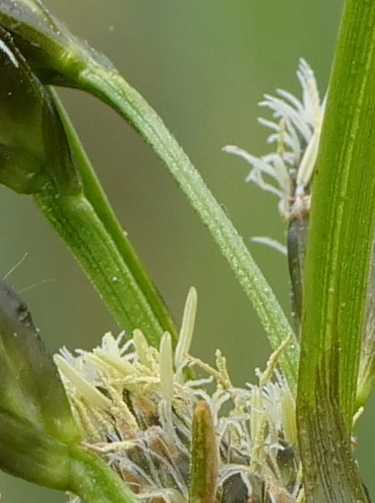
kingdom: Plantae
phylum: Tracheophyta
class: Liliopsida
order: Poales
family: Cyperaceae
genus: Eriophorum
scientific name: Eriophorum latifolium
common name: Broad-leaved cottongrass
